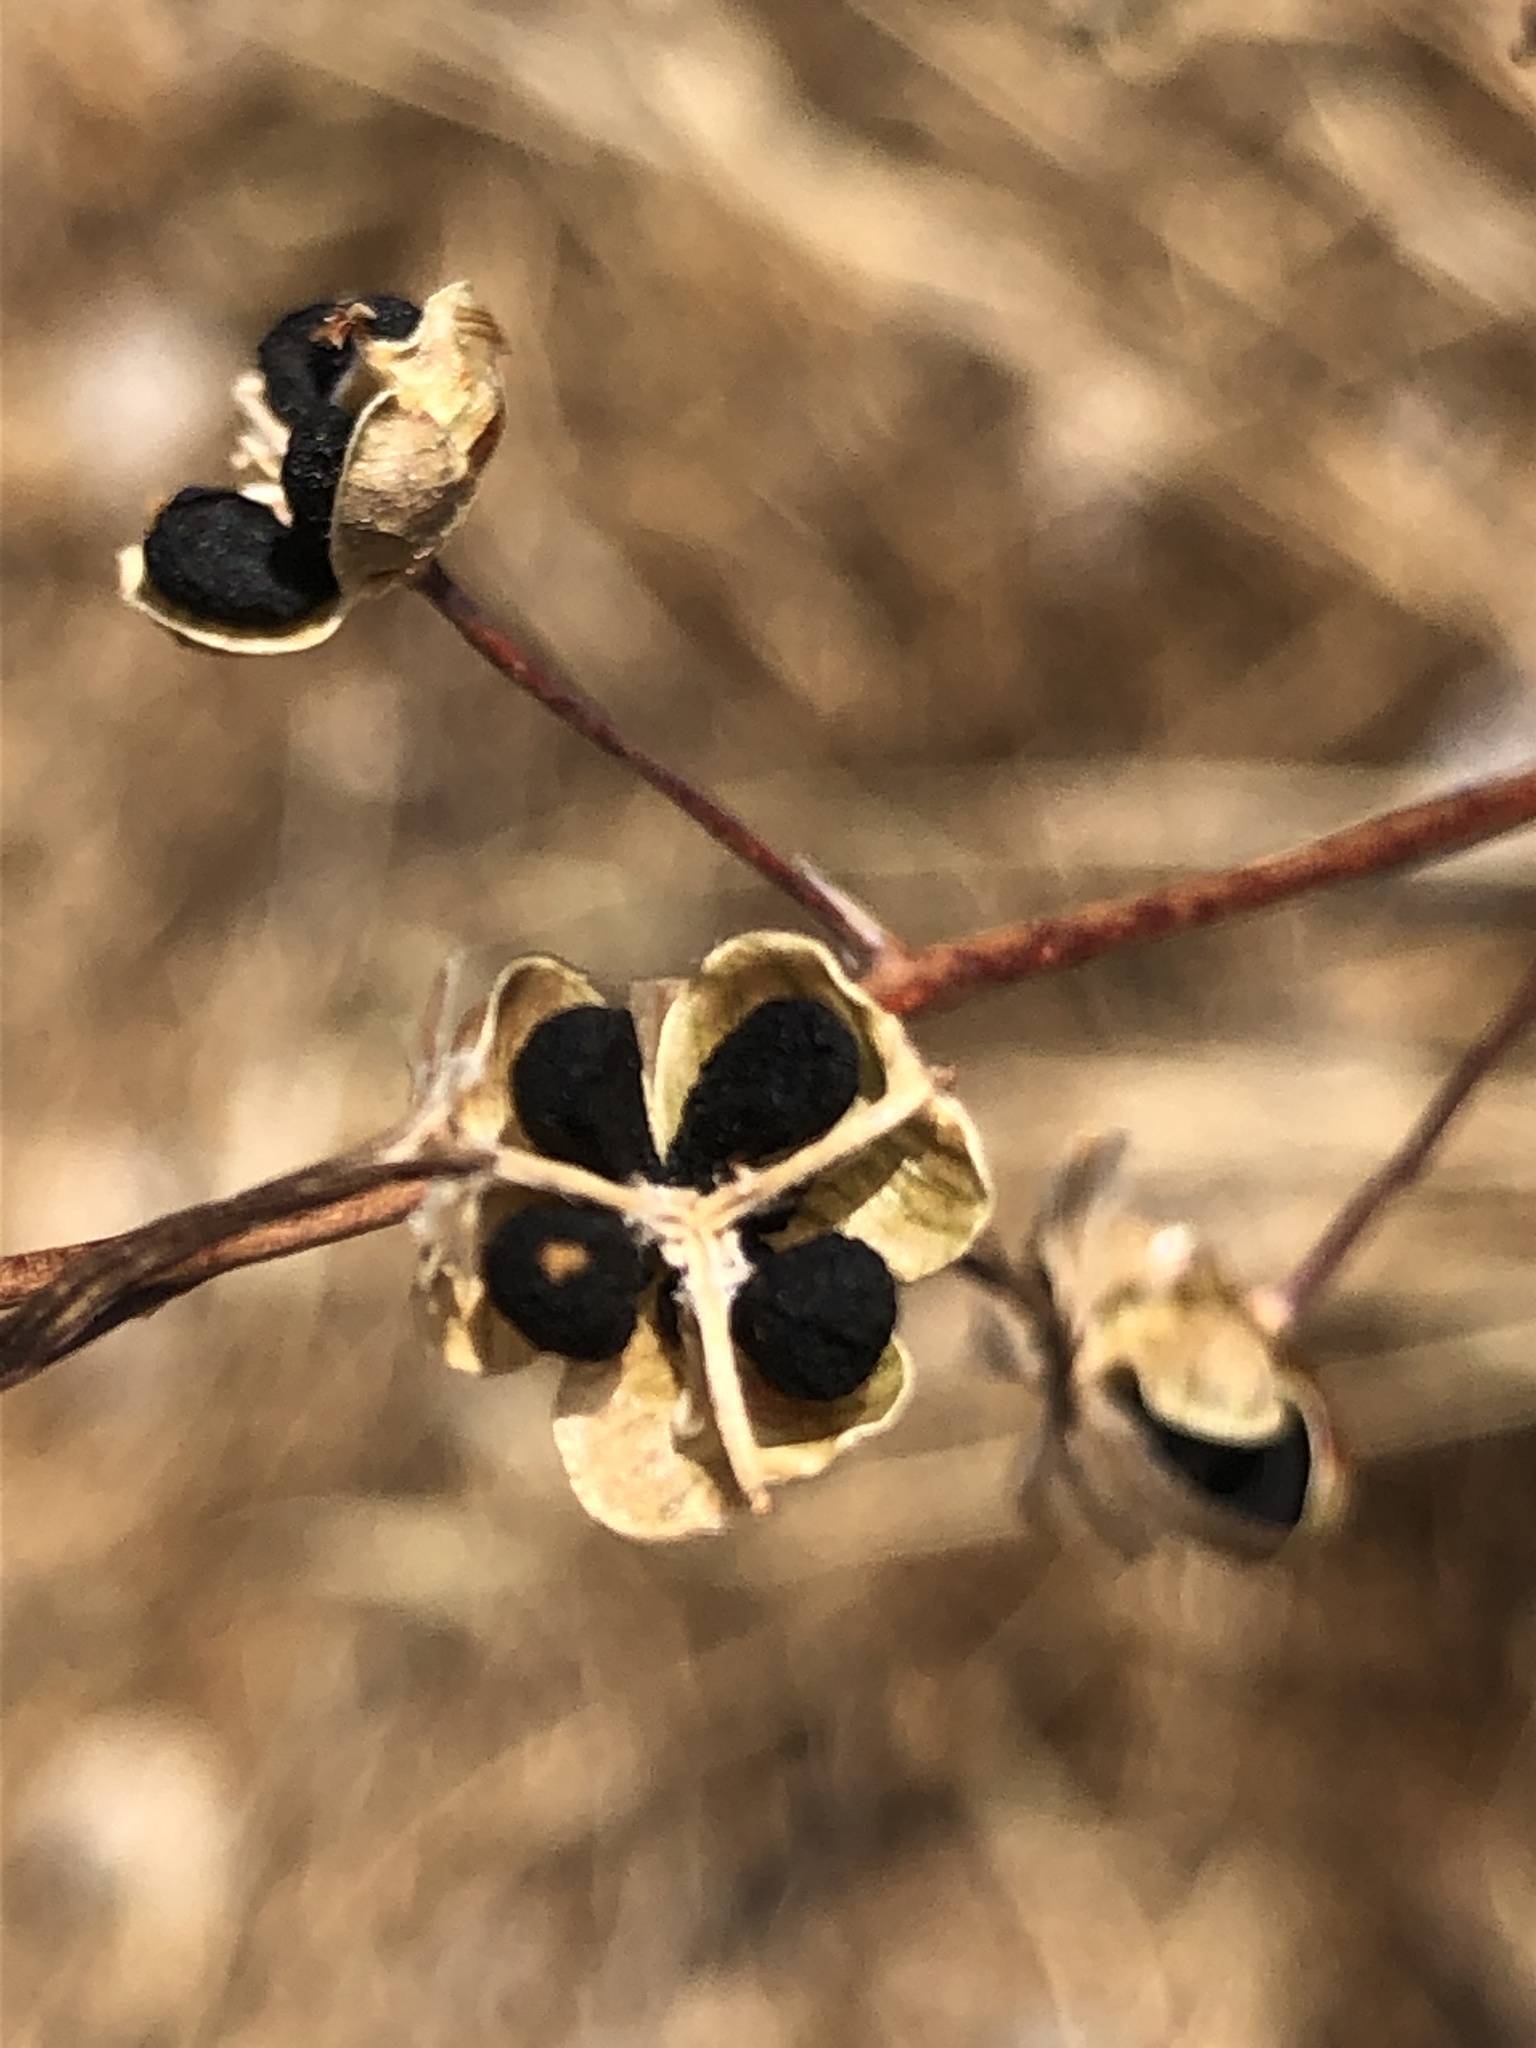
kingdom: Plantae
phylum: Tracheophyta
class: Liliopsida
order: Asparagales
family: Asparagaceae
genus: Chlorogalum
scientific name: Chlorogalum pomeridianum
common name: Amole
